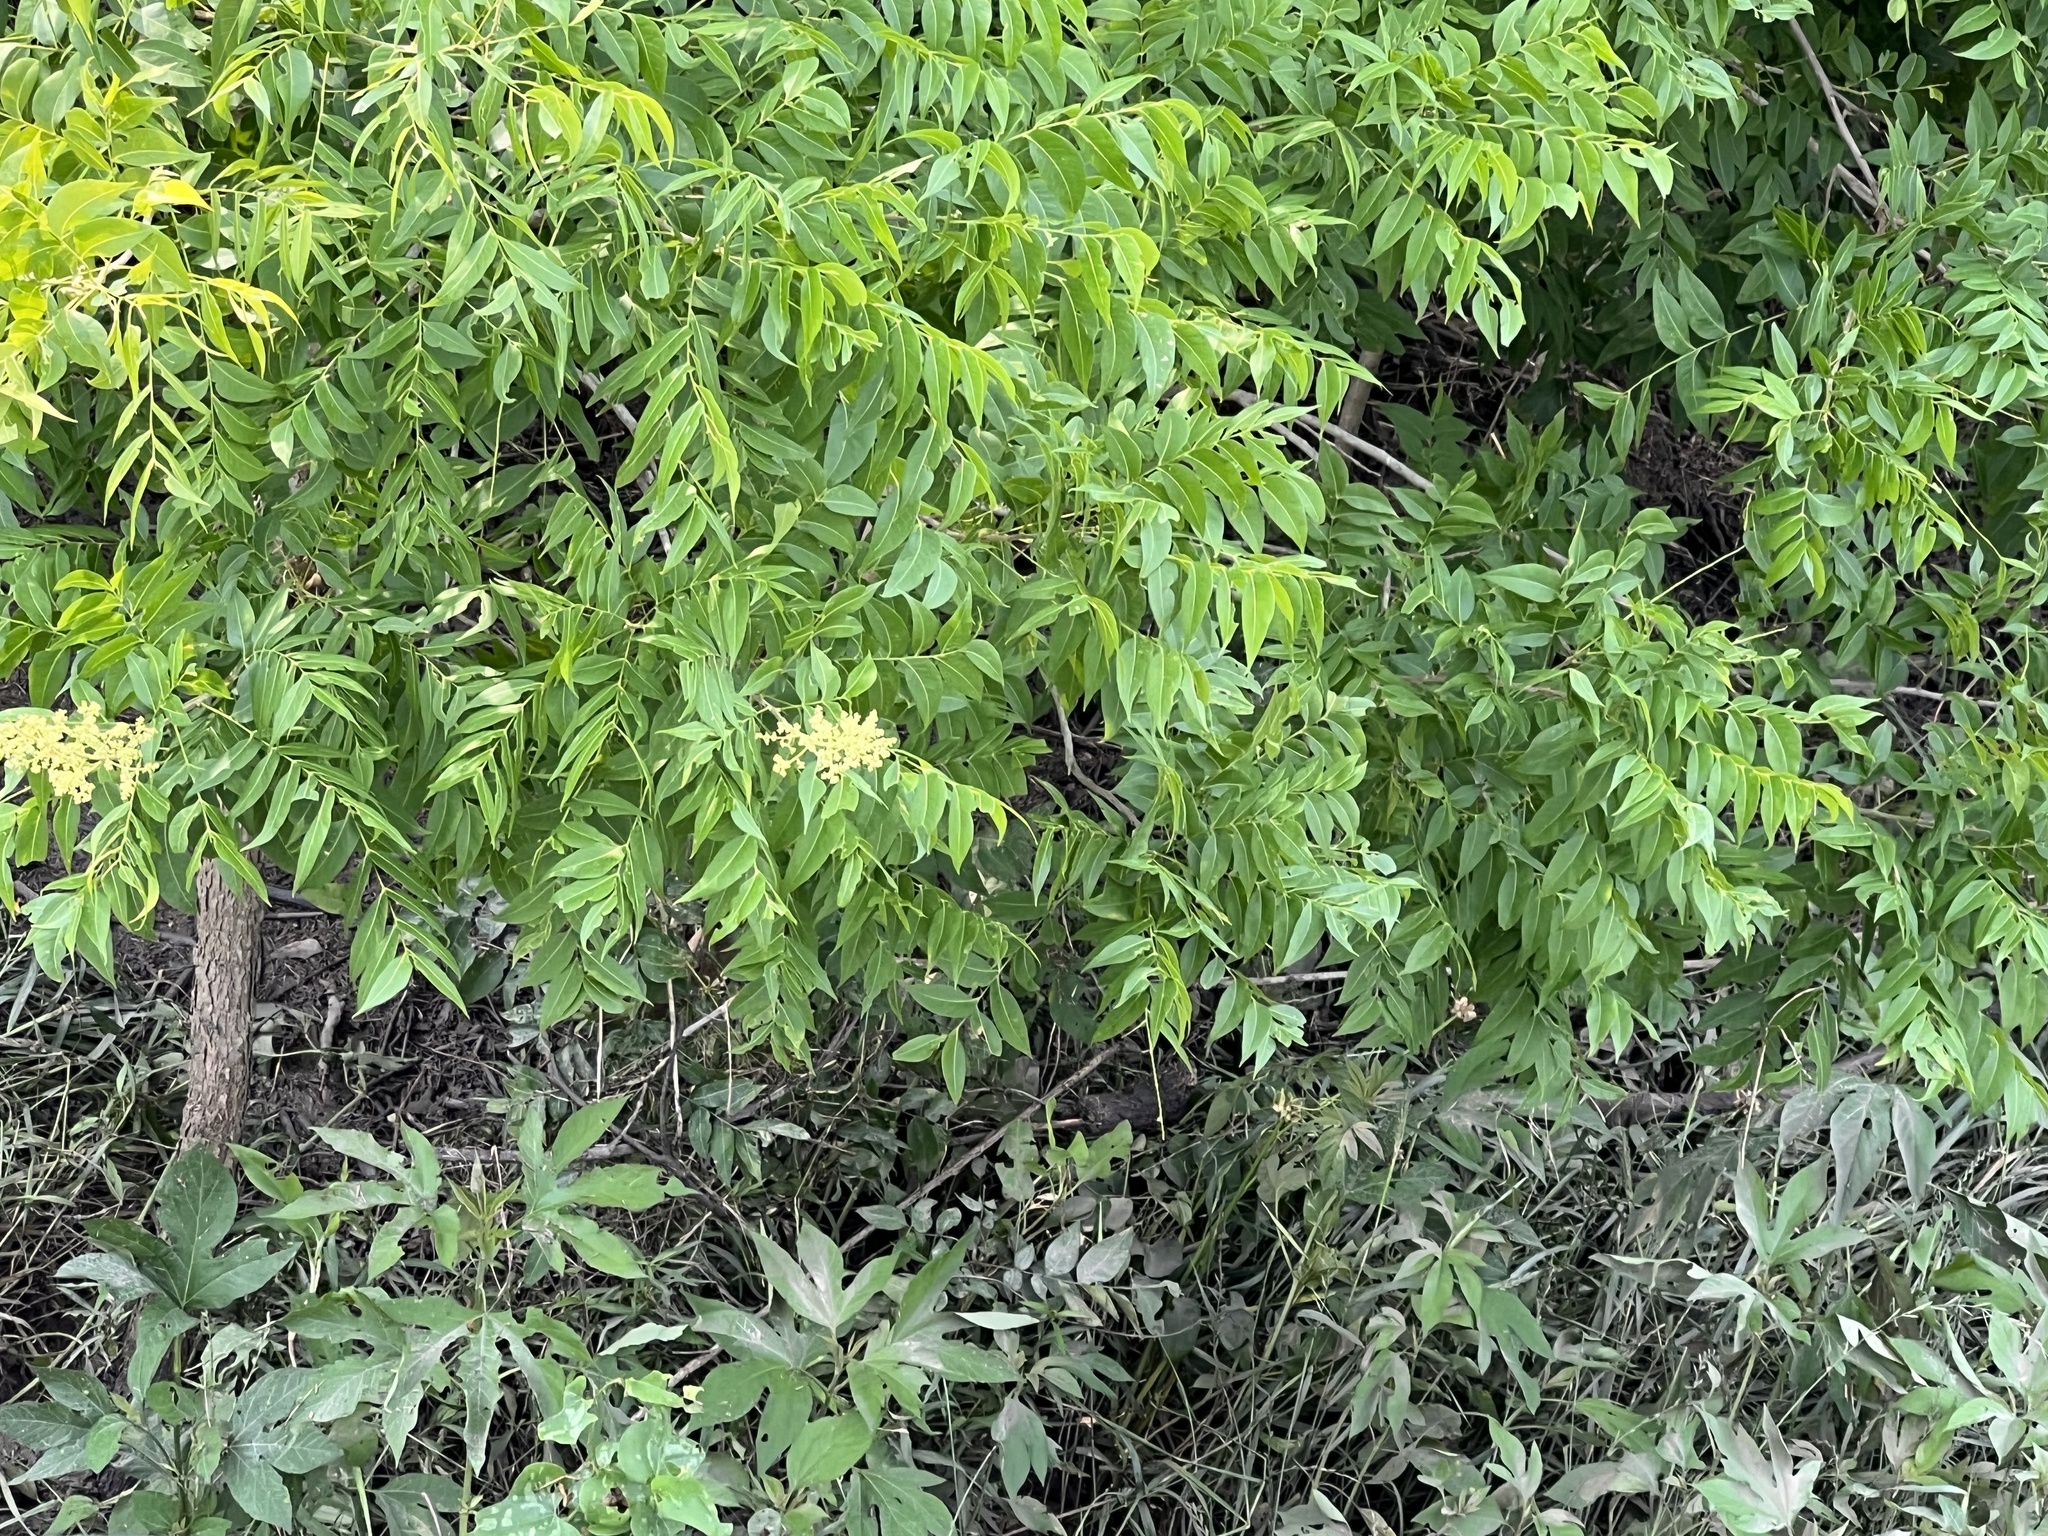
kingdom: Plantae
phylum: Tracheophyta
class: Magnoliopsida
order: Sapindales
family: Sapindaceae
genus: Sapindus
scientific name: Sapindus drummondii
